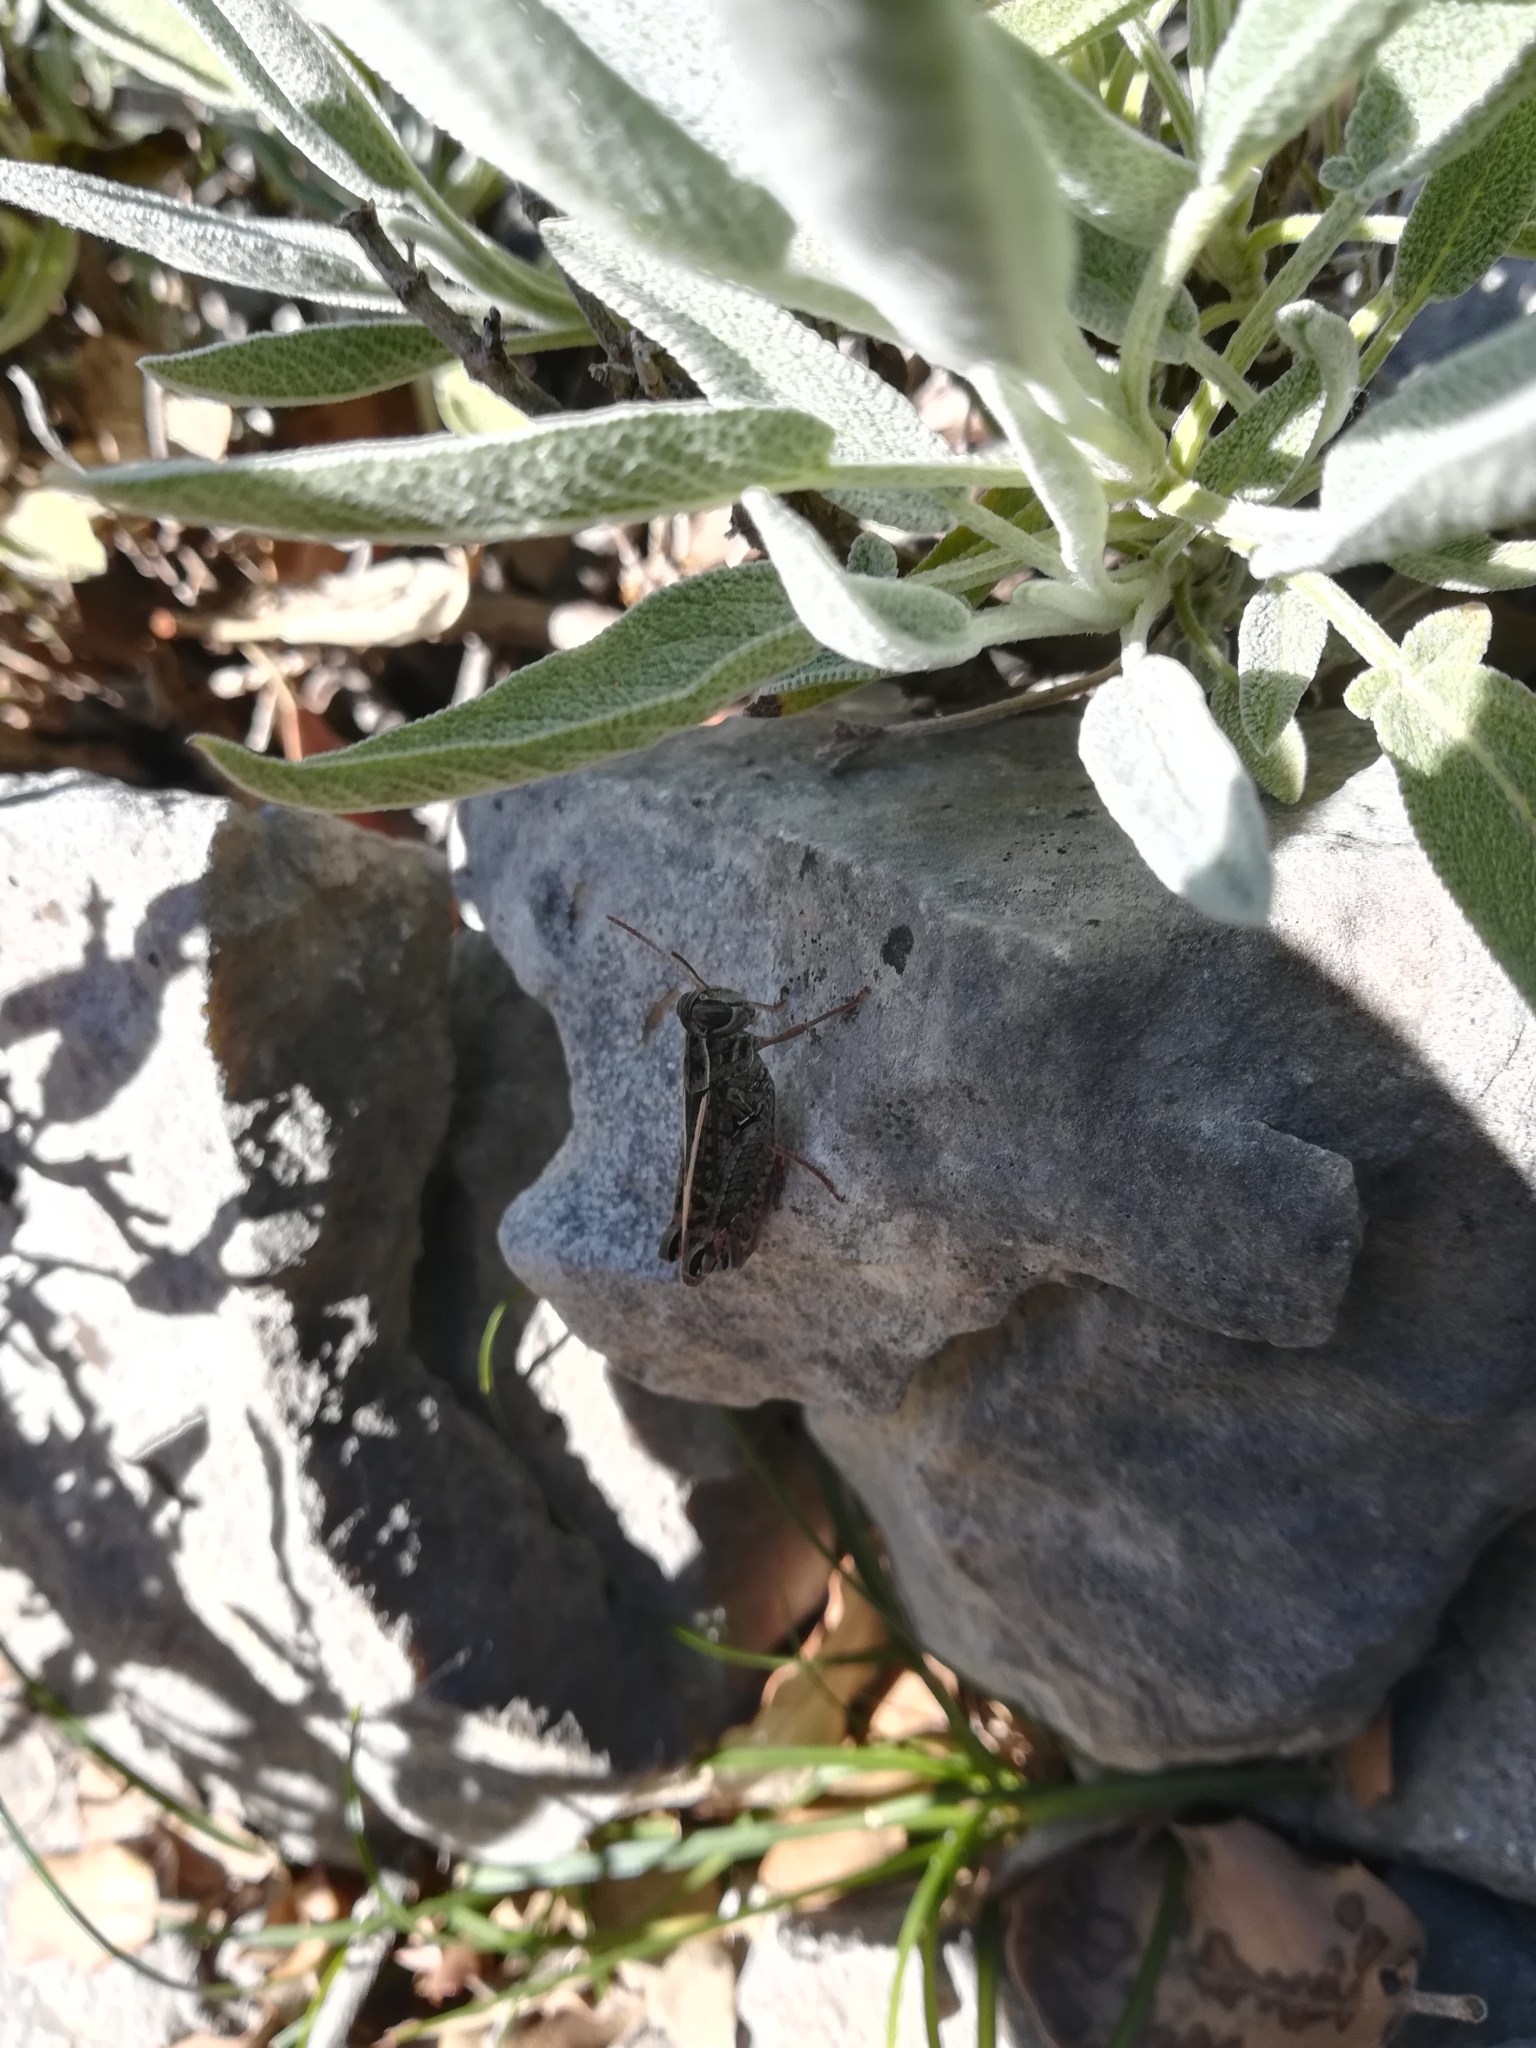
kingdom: Animalia
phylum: Arthropoda
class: Insecta
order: Orthoptera
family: Acrididae
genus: Calliptamus
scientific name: Calliptamus italicus
